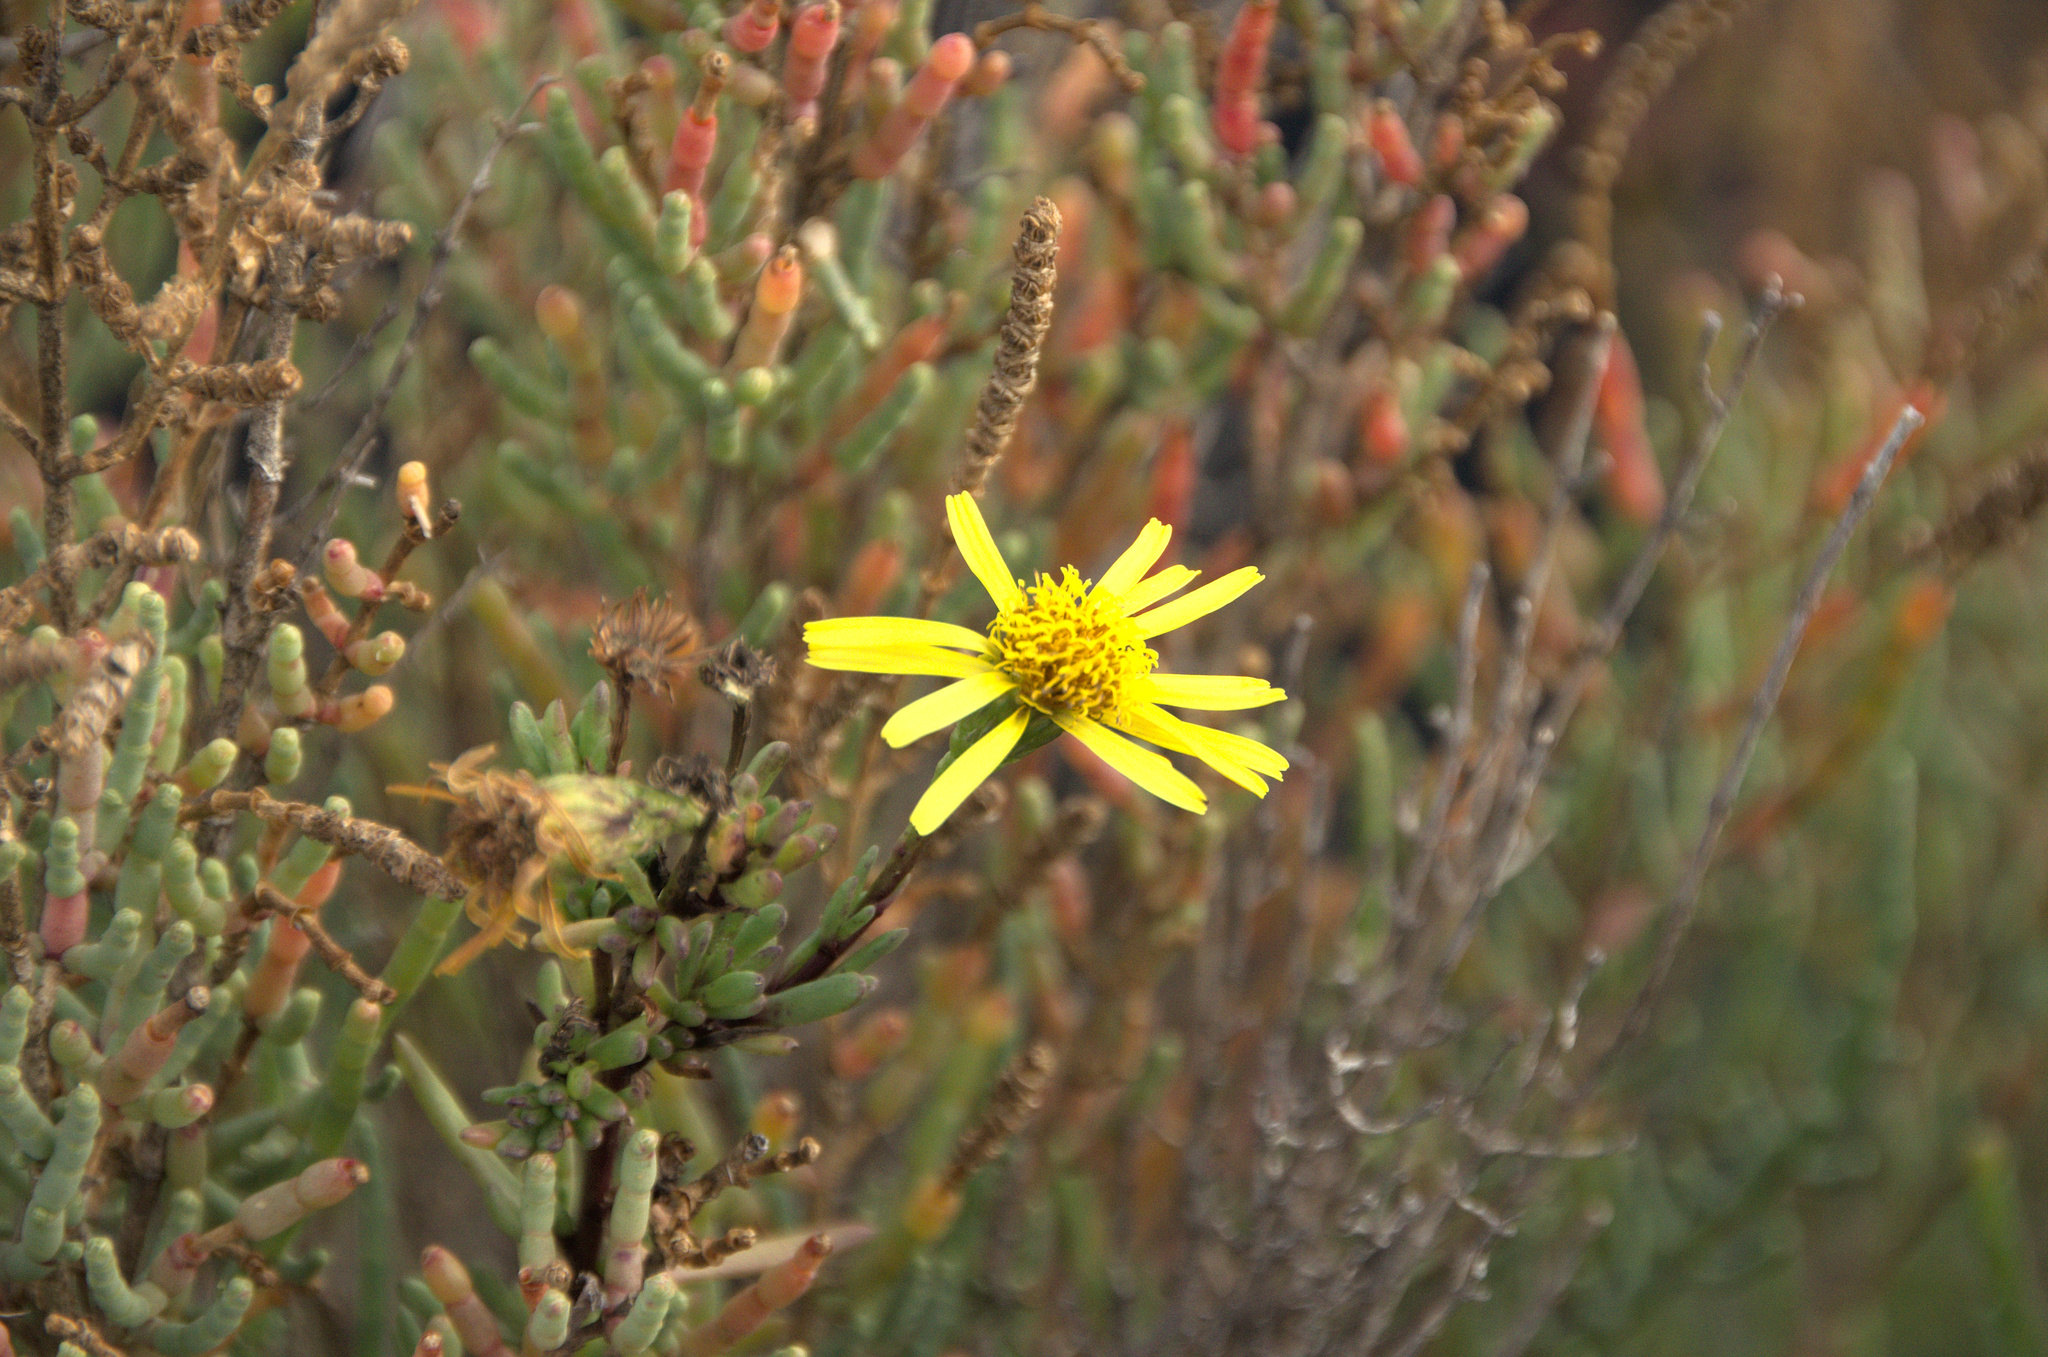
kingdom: Plantae
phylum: Tracheophyta
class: Magnoliopsida
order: Asterales
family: Asteraceae
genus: Limbarda
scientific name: Limbarda crithmoides
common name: Golden samphire
